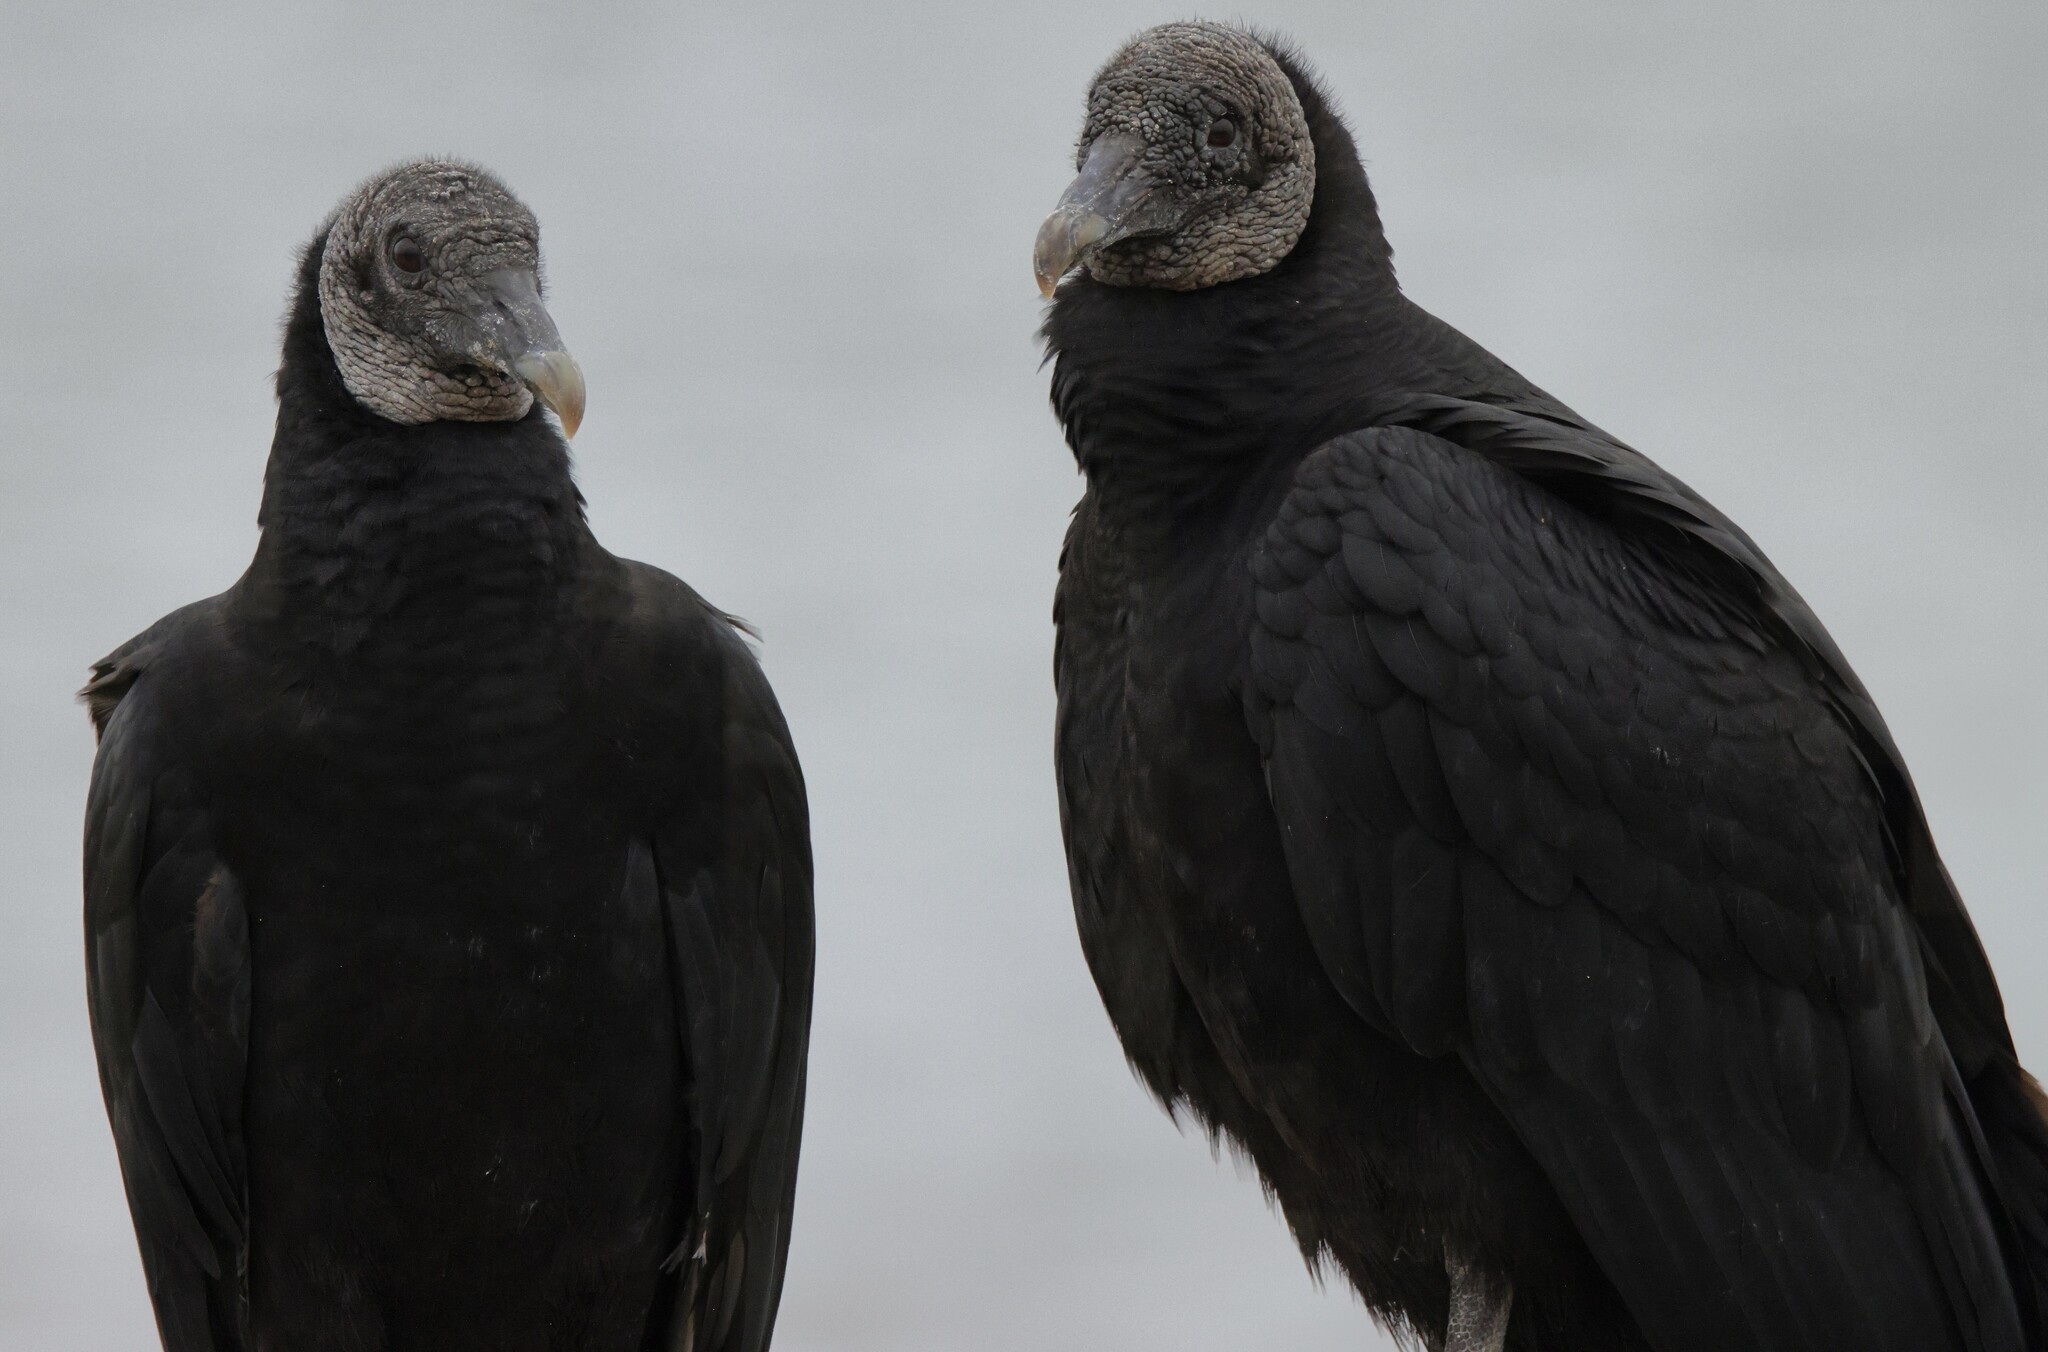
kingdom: Animalia
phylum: Chordata
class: Aves
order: Accipitriformes
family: Cathartidae
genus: Coragyps
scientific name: Coragyps atratus
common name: Black vulture
